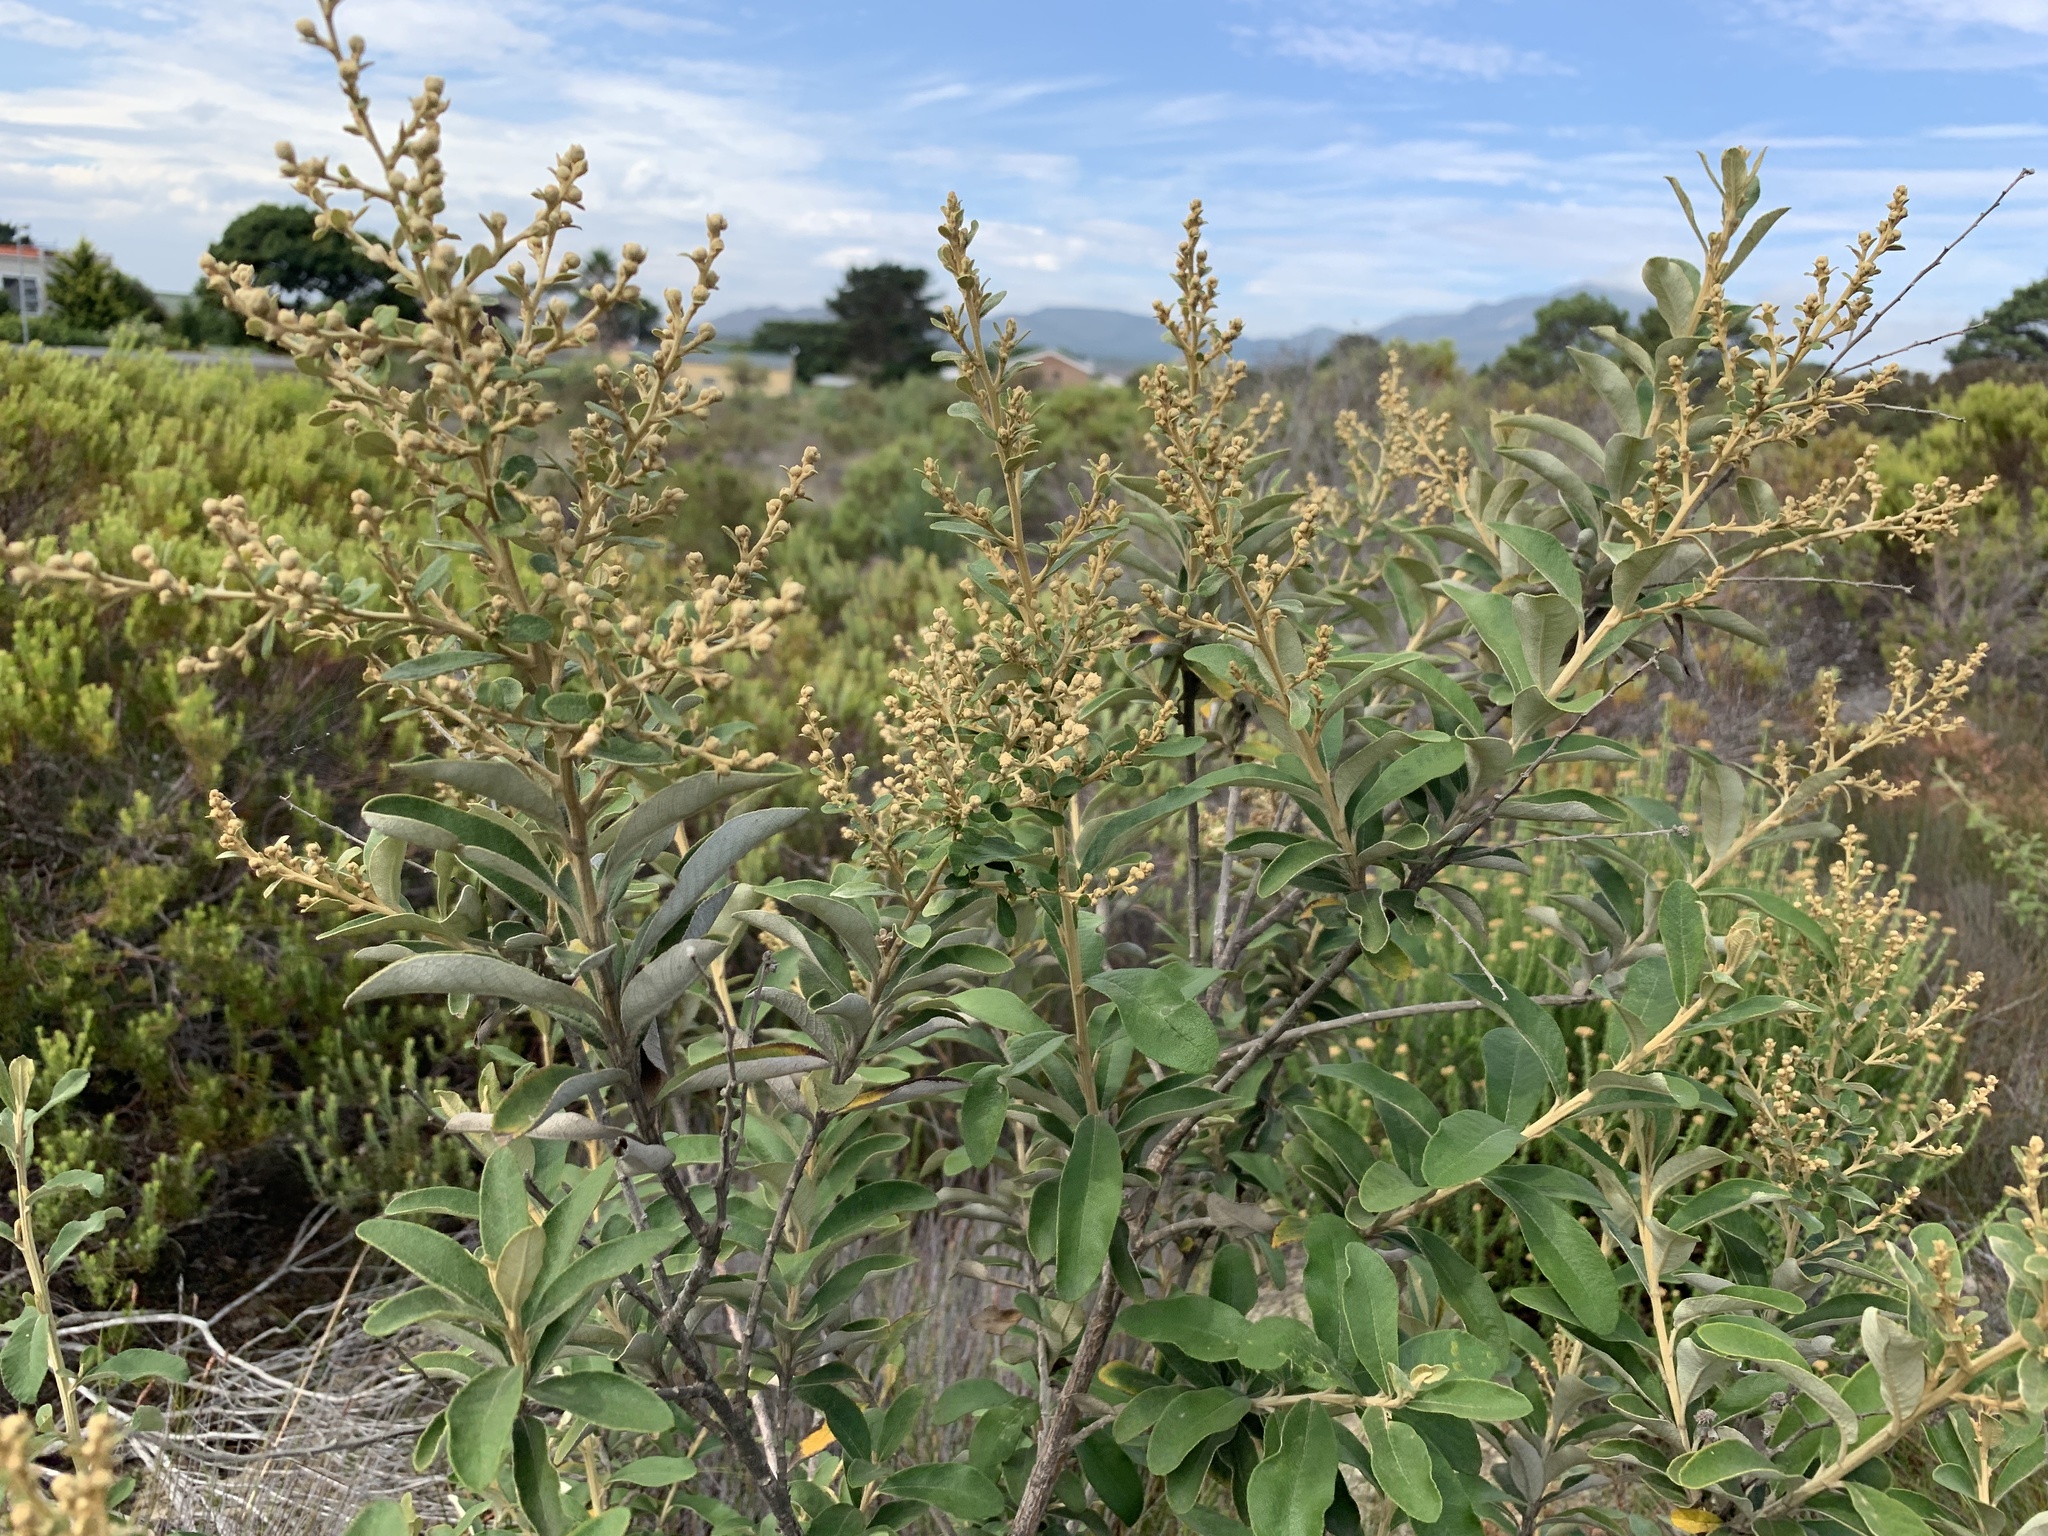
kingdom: Plantae
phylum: Tracheophyta
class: Magnoliopsida
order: Asterales
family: Asteraceae
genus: Tarchonanthus
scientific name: Tarchonanthus littoralis
